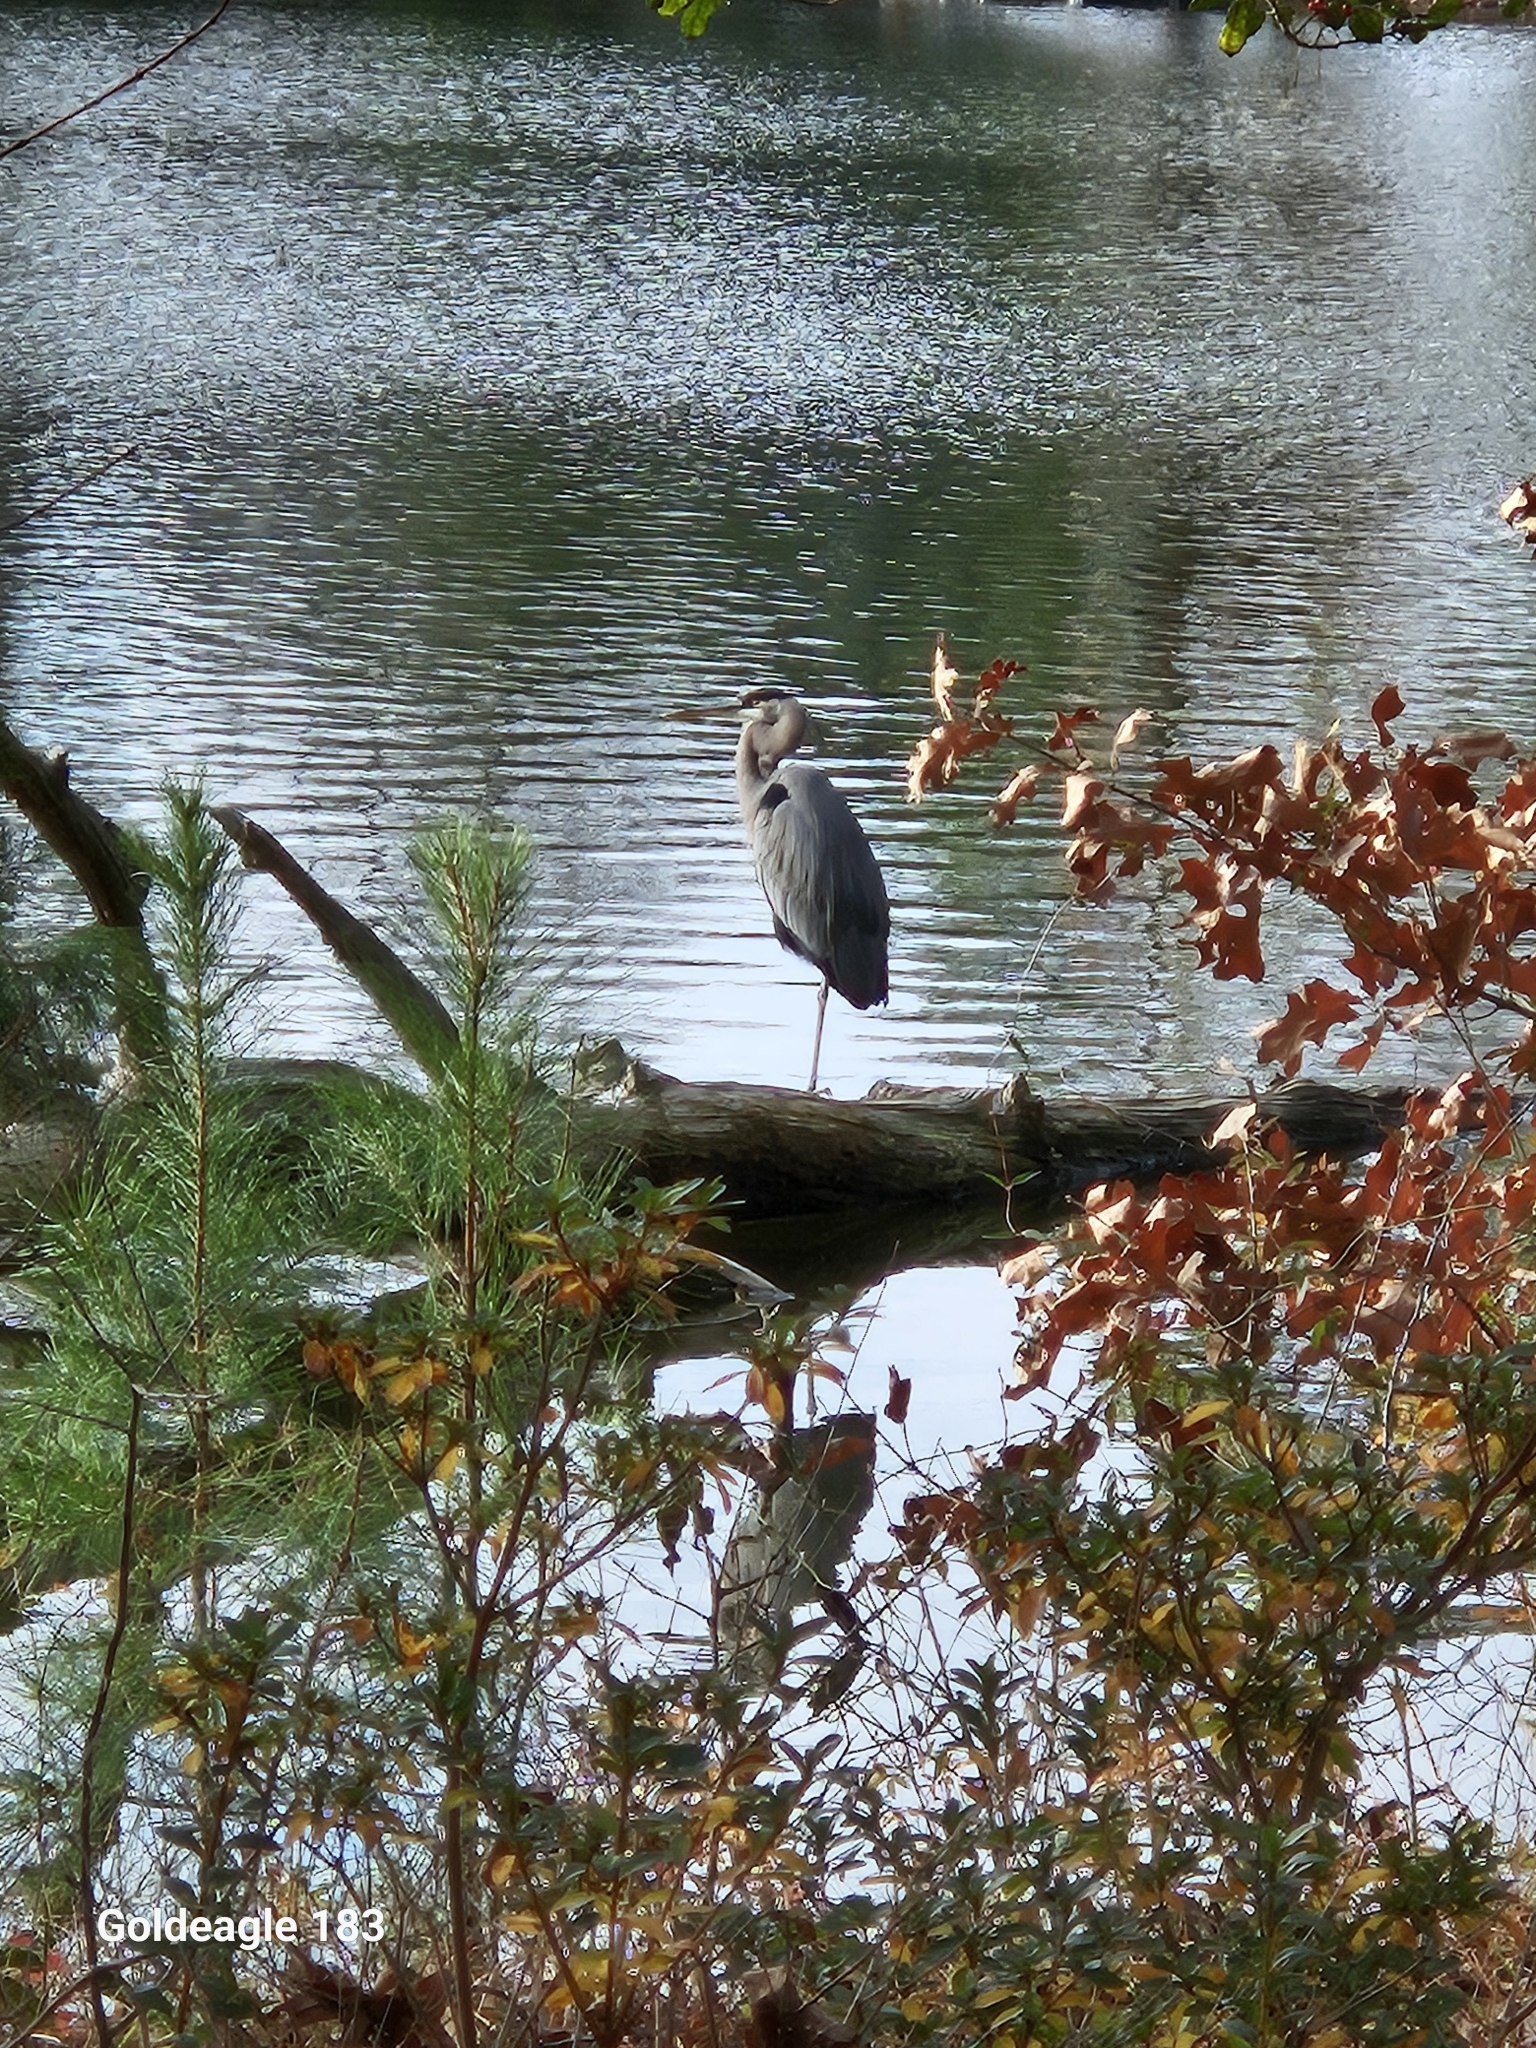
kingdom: Animalia
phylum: Chordata
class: Aves
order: Pelecaniformes
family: Ardeidae
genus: Ardea
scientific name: Ardea herodias
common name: Great blue heron
